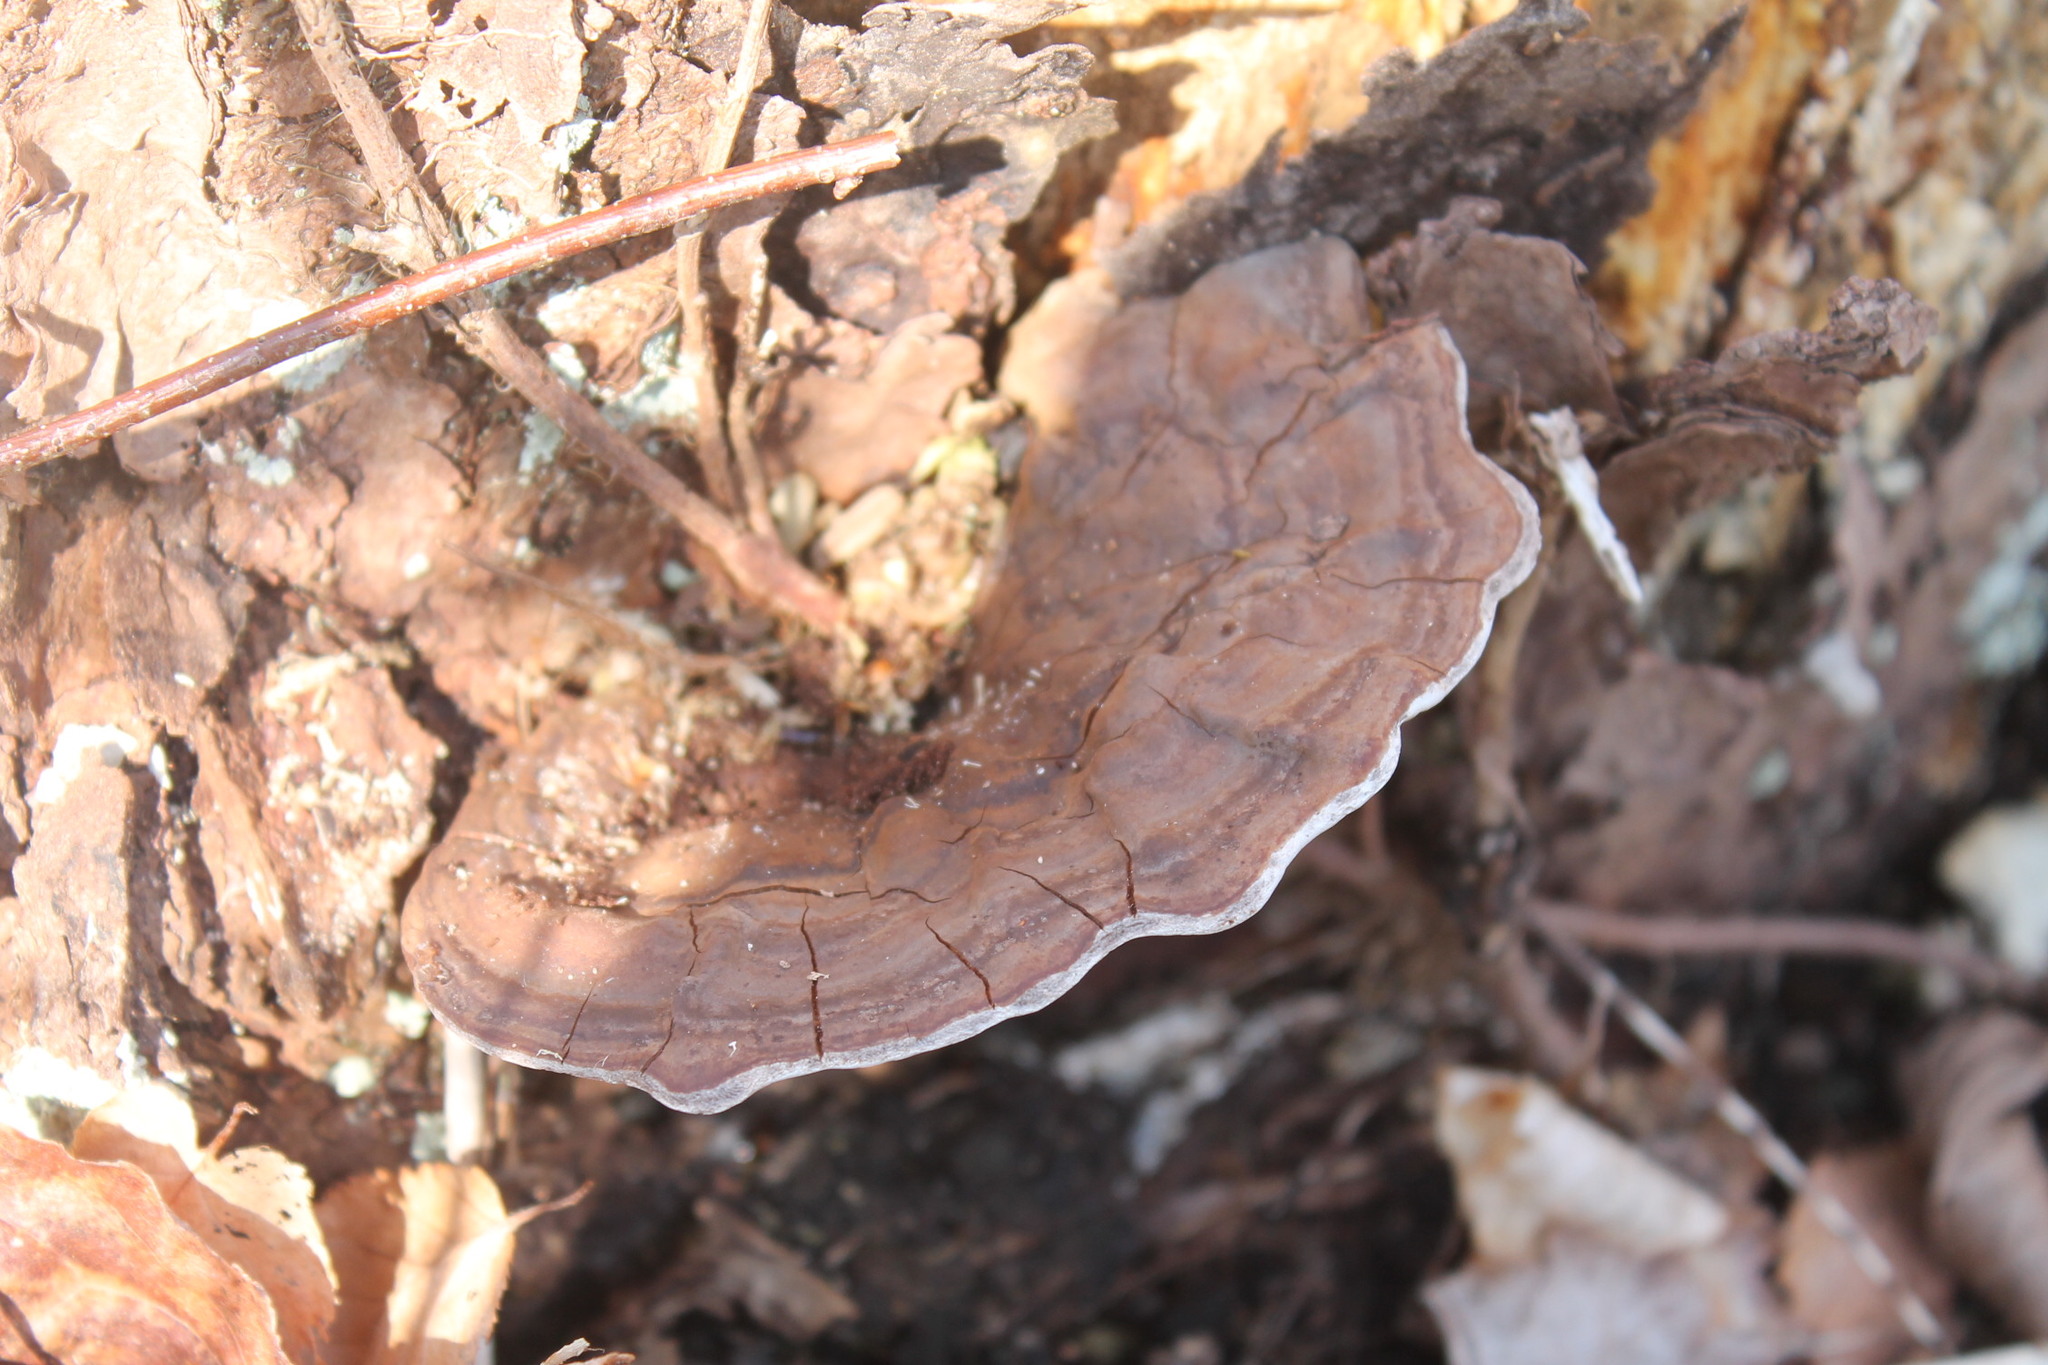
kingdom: Fungi
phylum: Basidiomycota
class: Agaricomycetes
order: Polyporales
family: Polyporaceae
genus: Ganoderma
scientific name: Ganoderma applanatum
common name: Artist's bracket
